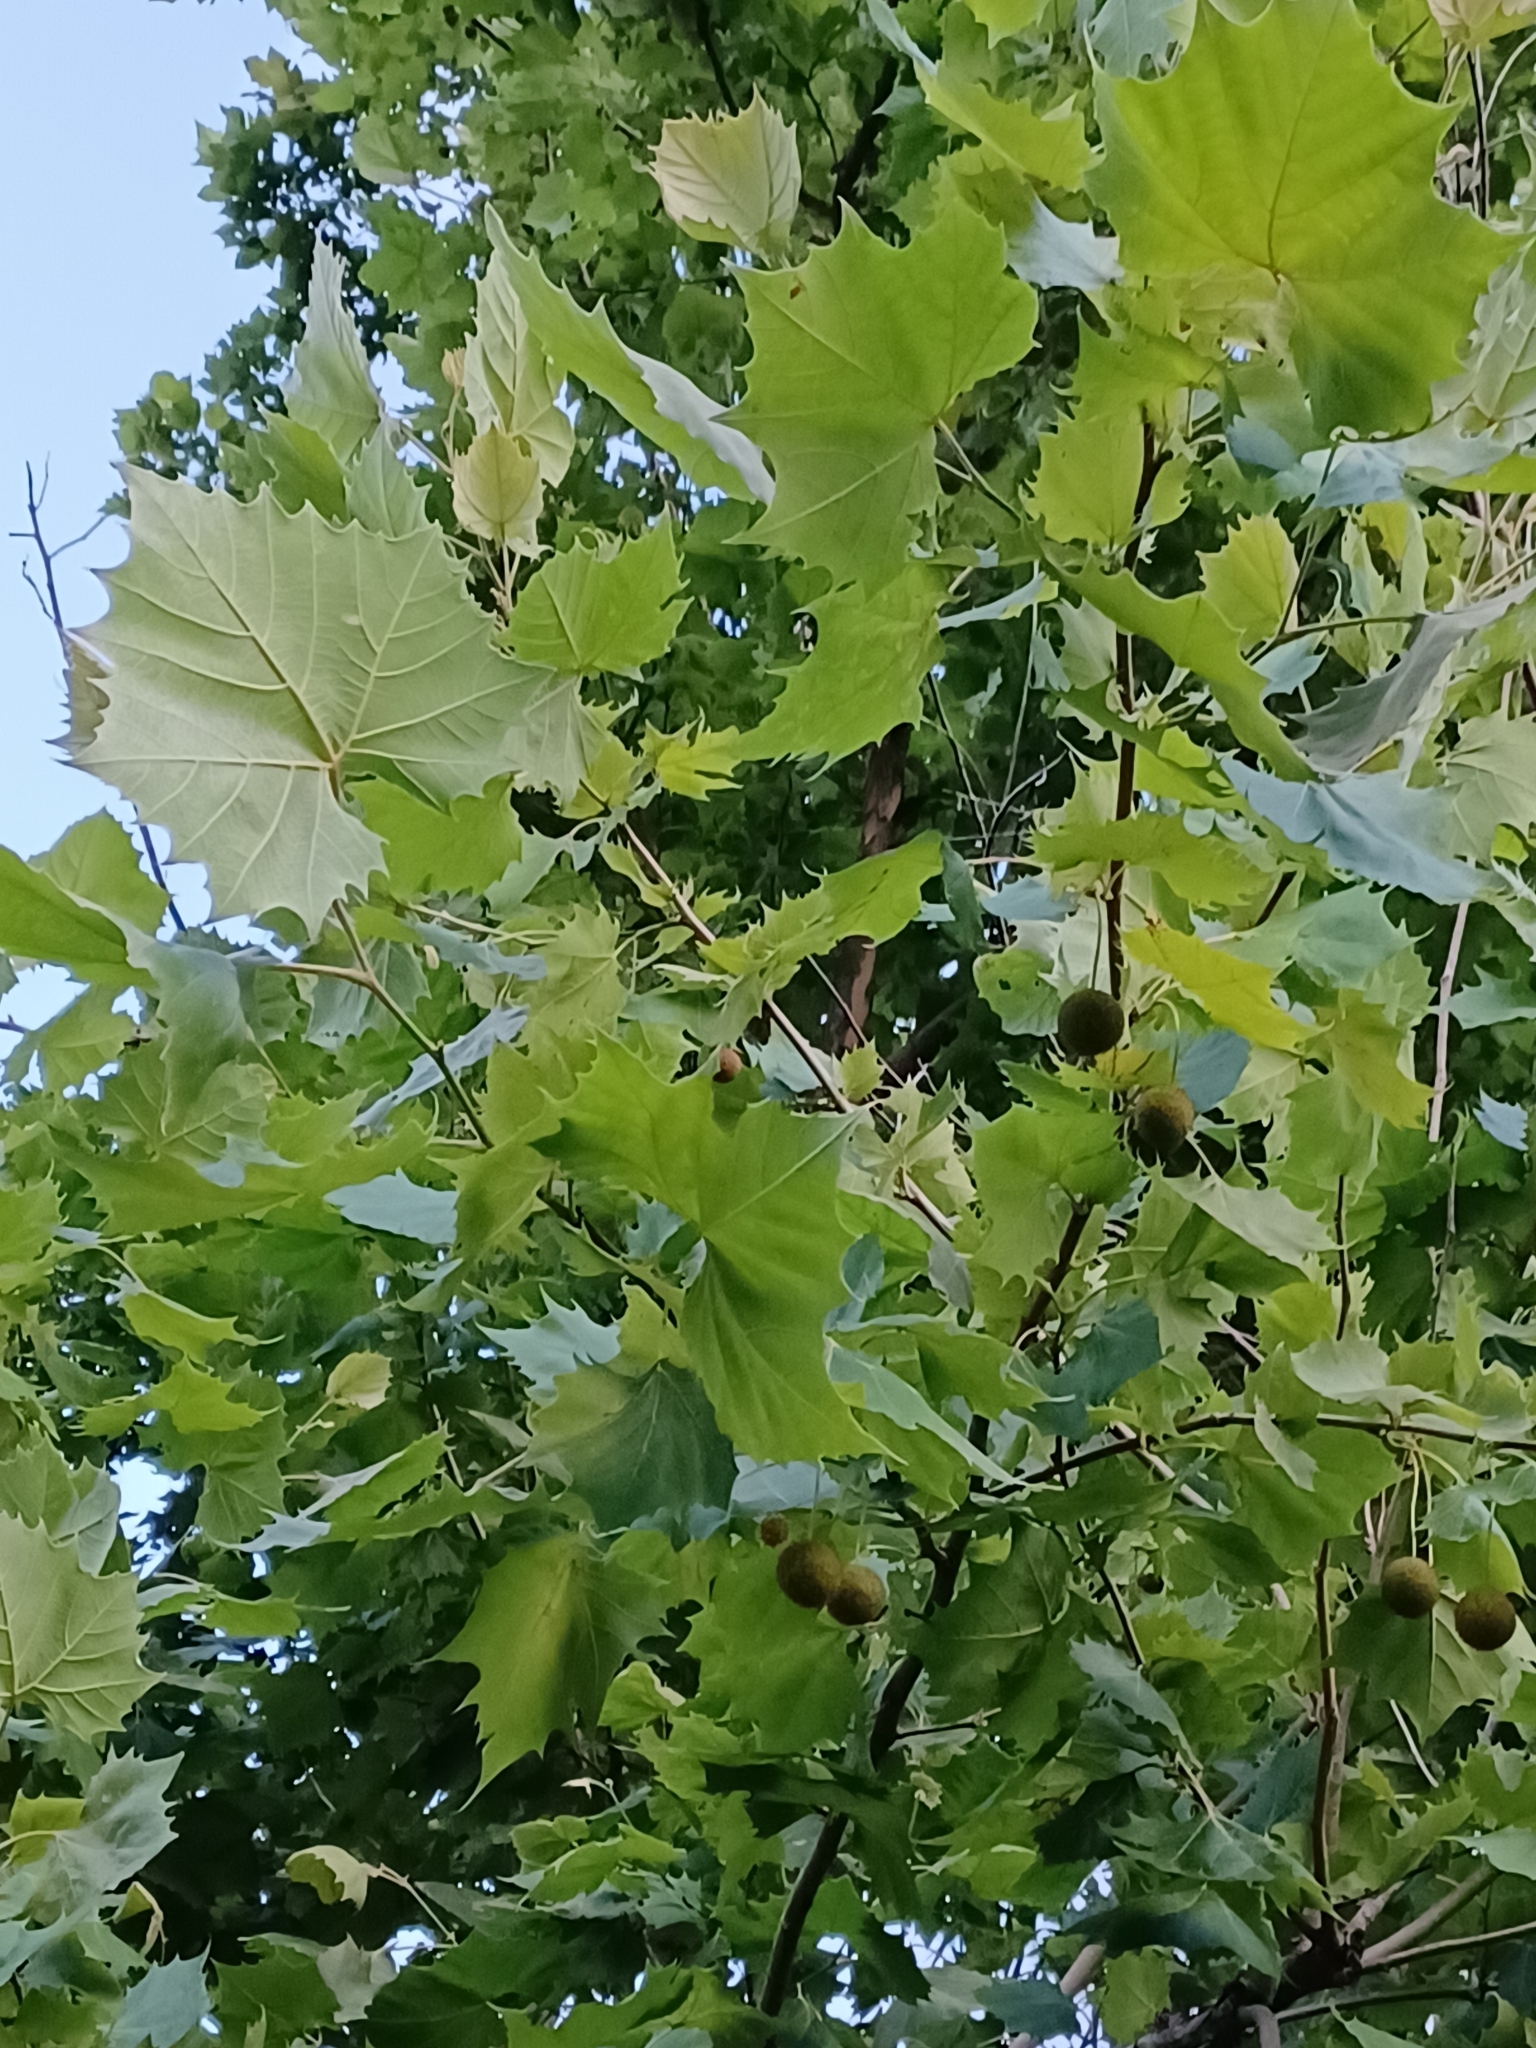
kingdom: Plantae
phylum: Tracheophyta
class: Magnoliopsida
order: Proteales
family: Platanaceae
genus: Platanus
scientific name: Platanus occidentalis
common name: American sycamore
